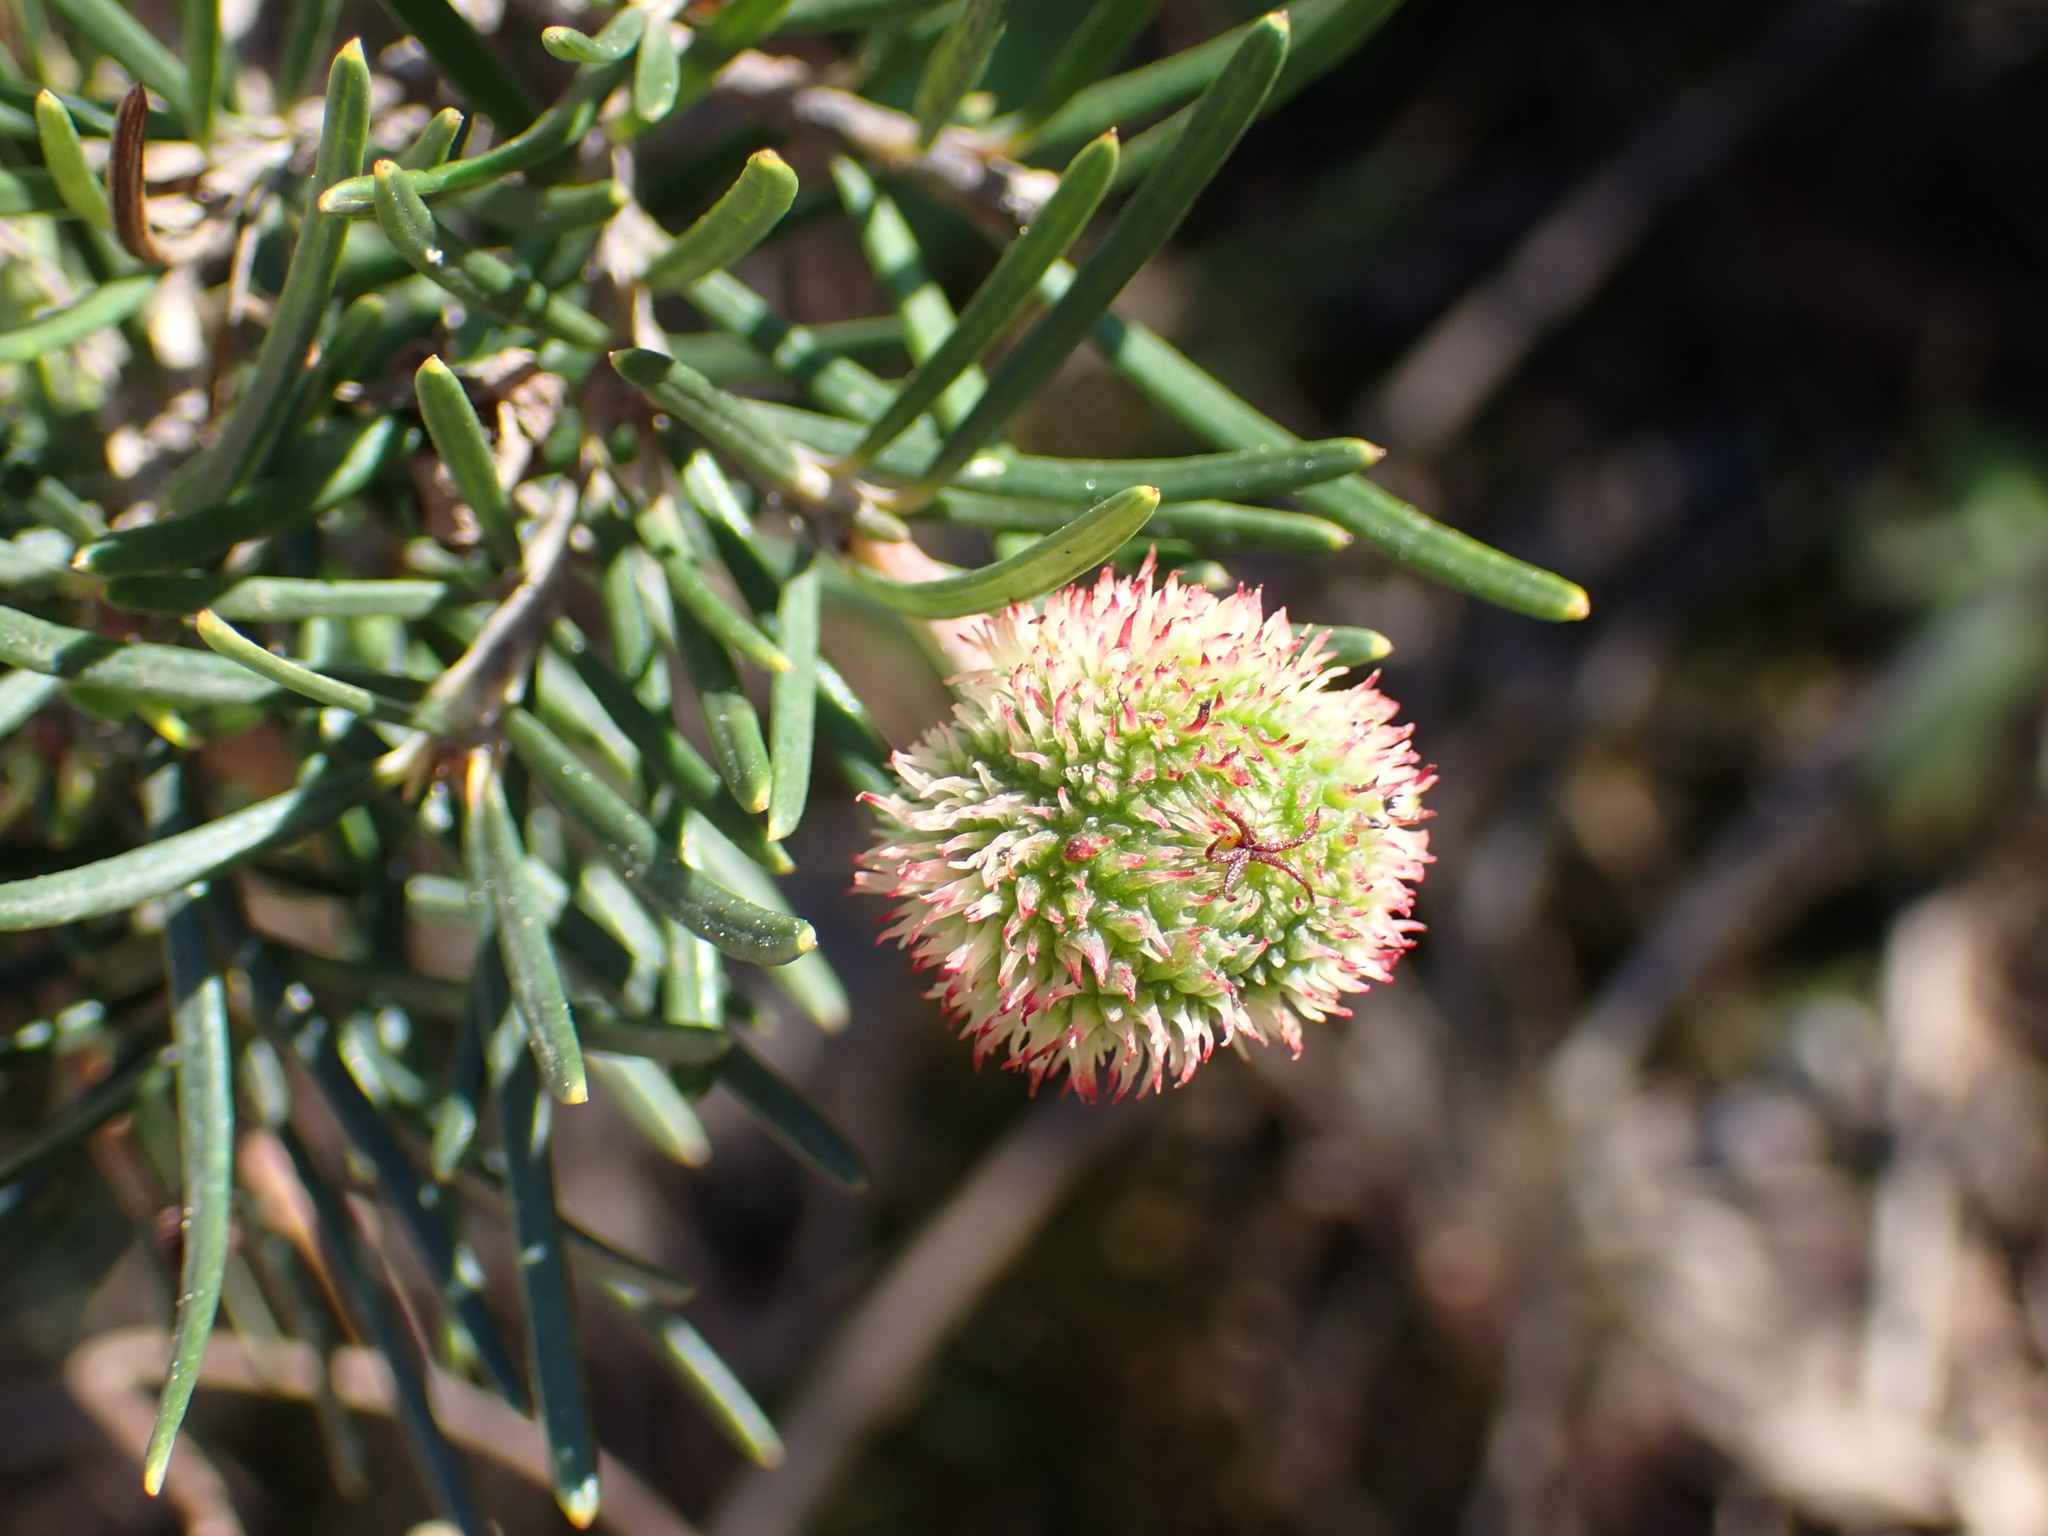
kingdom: Plantae
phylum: Tracheophyta
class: Magnoliopsida
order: Malpighiales
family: Euphorbiaceae
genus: Ricinocarpos
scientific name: Ricinocarpos pinifolius
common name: Weddingbush
